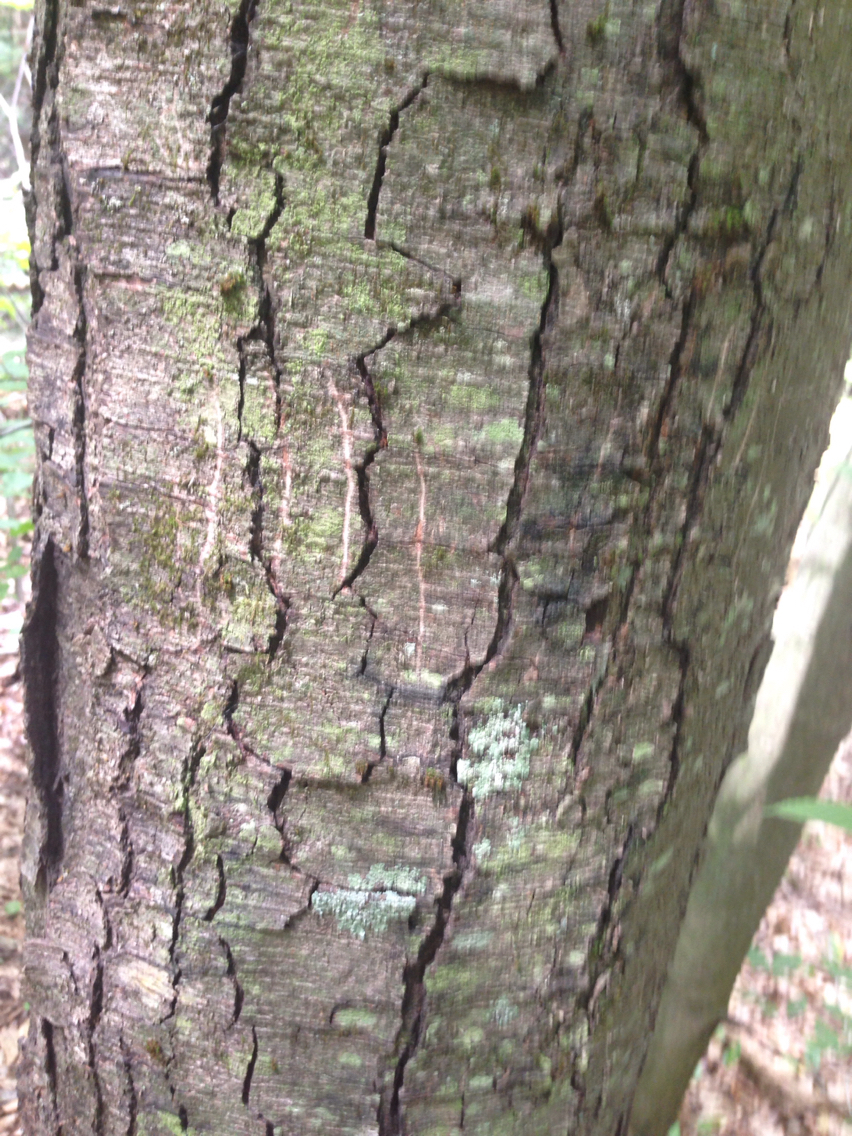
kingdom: Animalia
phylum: Chordata
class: Mammalia
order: Carnivora
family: Ursidae
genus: Ursus
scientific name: Ursus americanus
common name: American black bear
